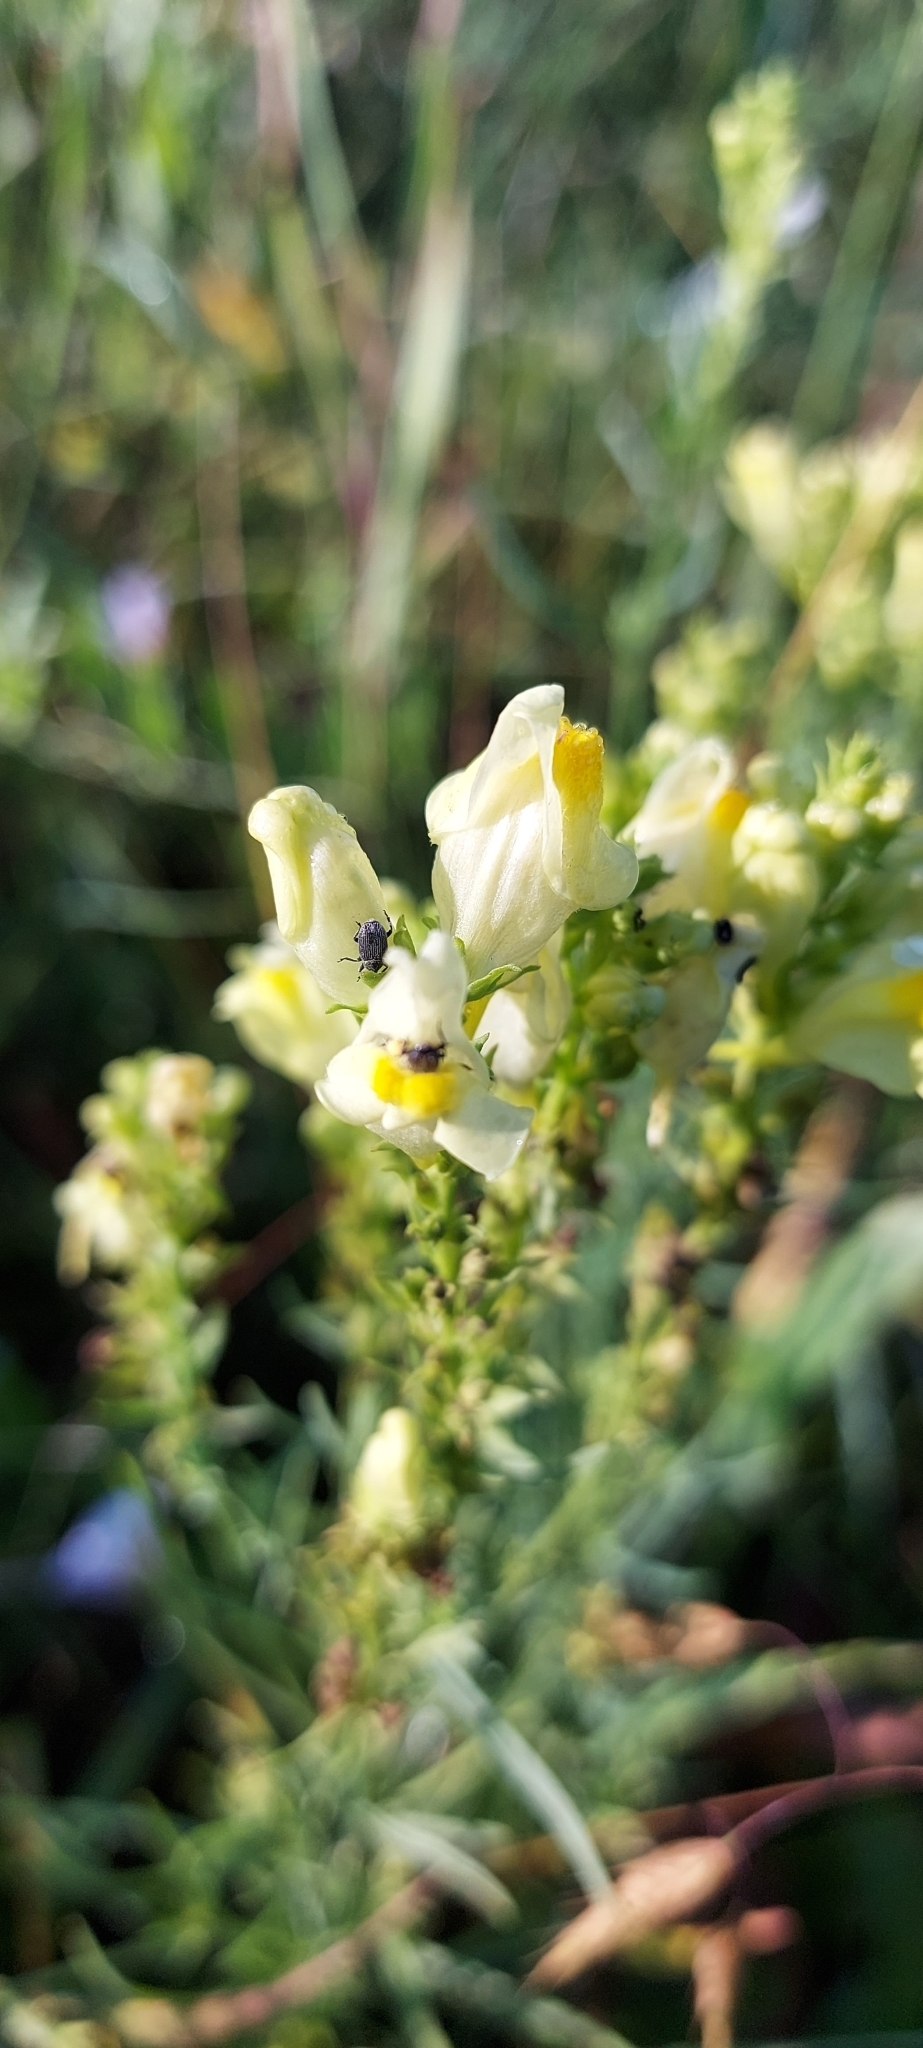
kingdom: Plantae
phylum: Tracheophyta
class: Magnoliopsida
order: Lamiales
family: Plantaginaceae
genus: Linaria
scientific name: Linaria vulgaris
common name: Butter and eggs
